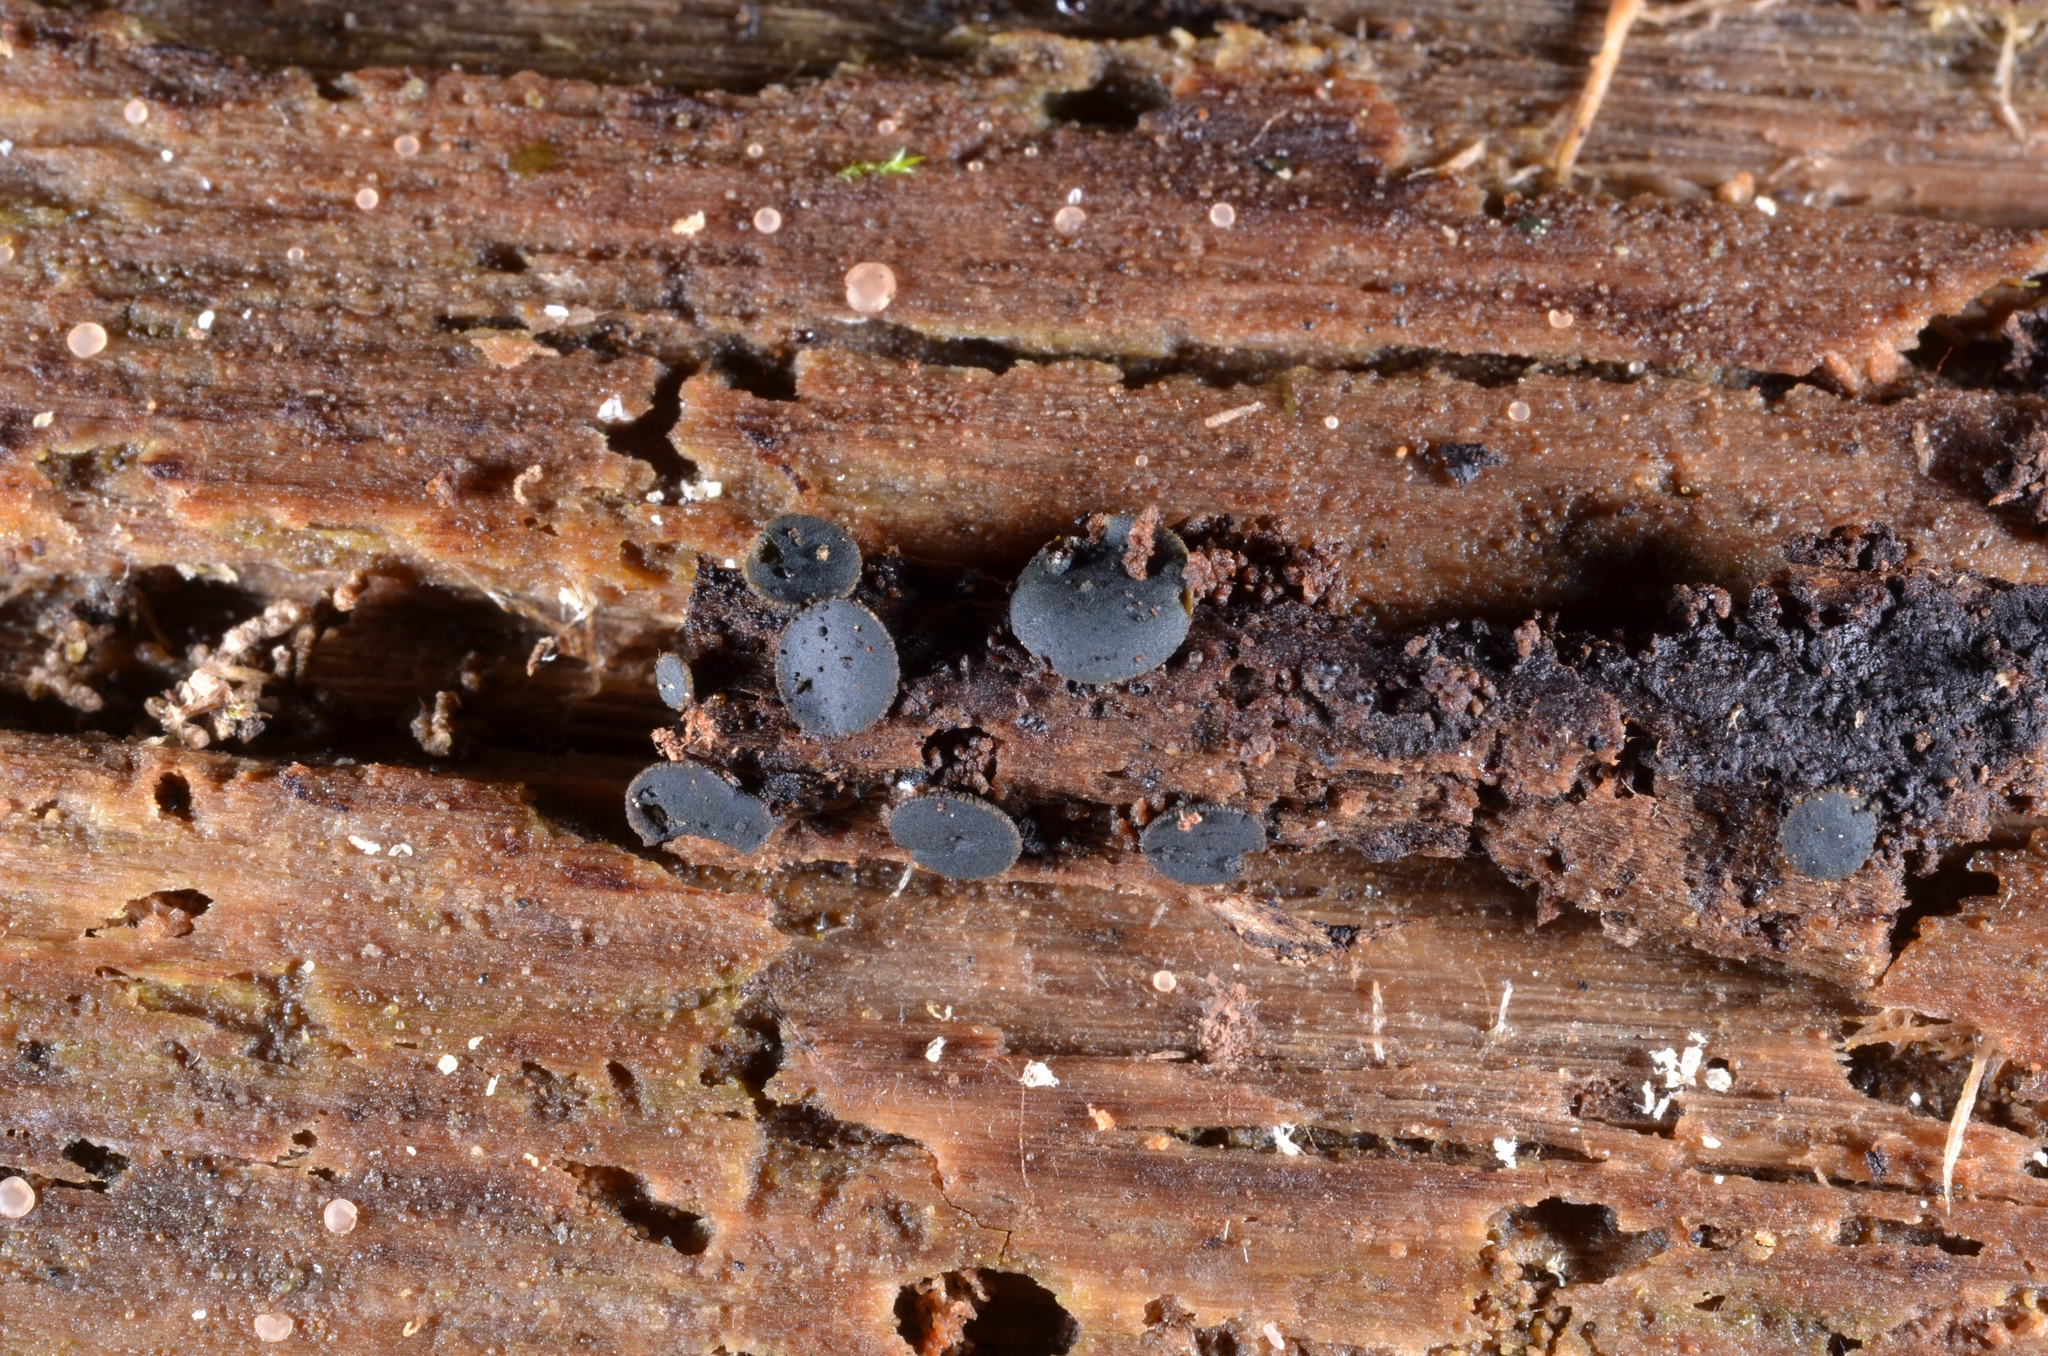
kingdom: Fungi
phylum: Ascomycota
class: Dothideomycetes
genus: Catinella
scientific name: Catinella olivacea
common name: Olive salver
